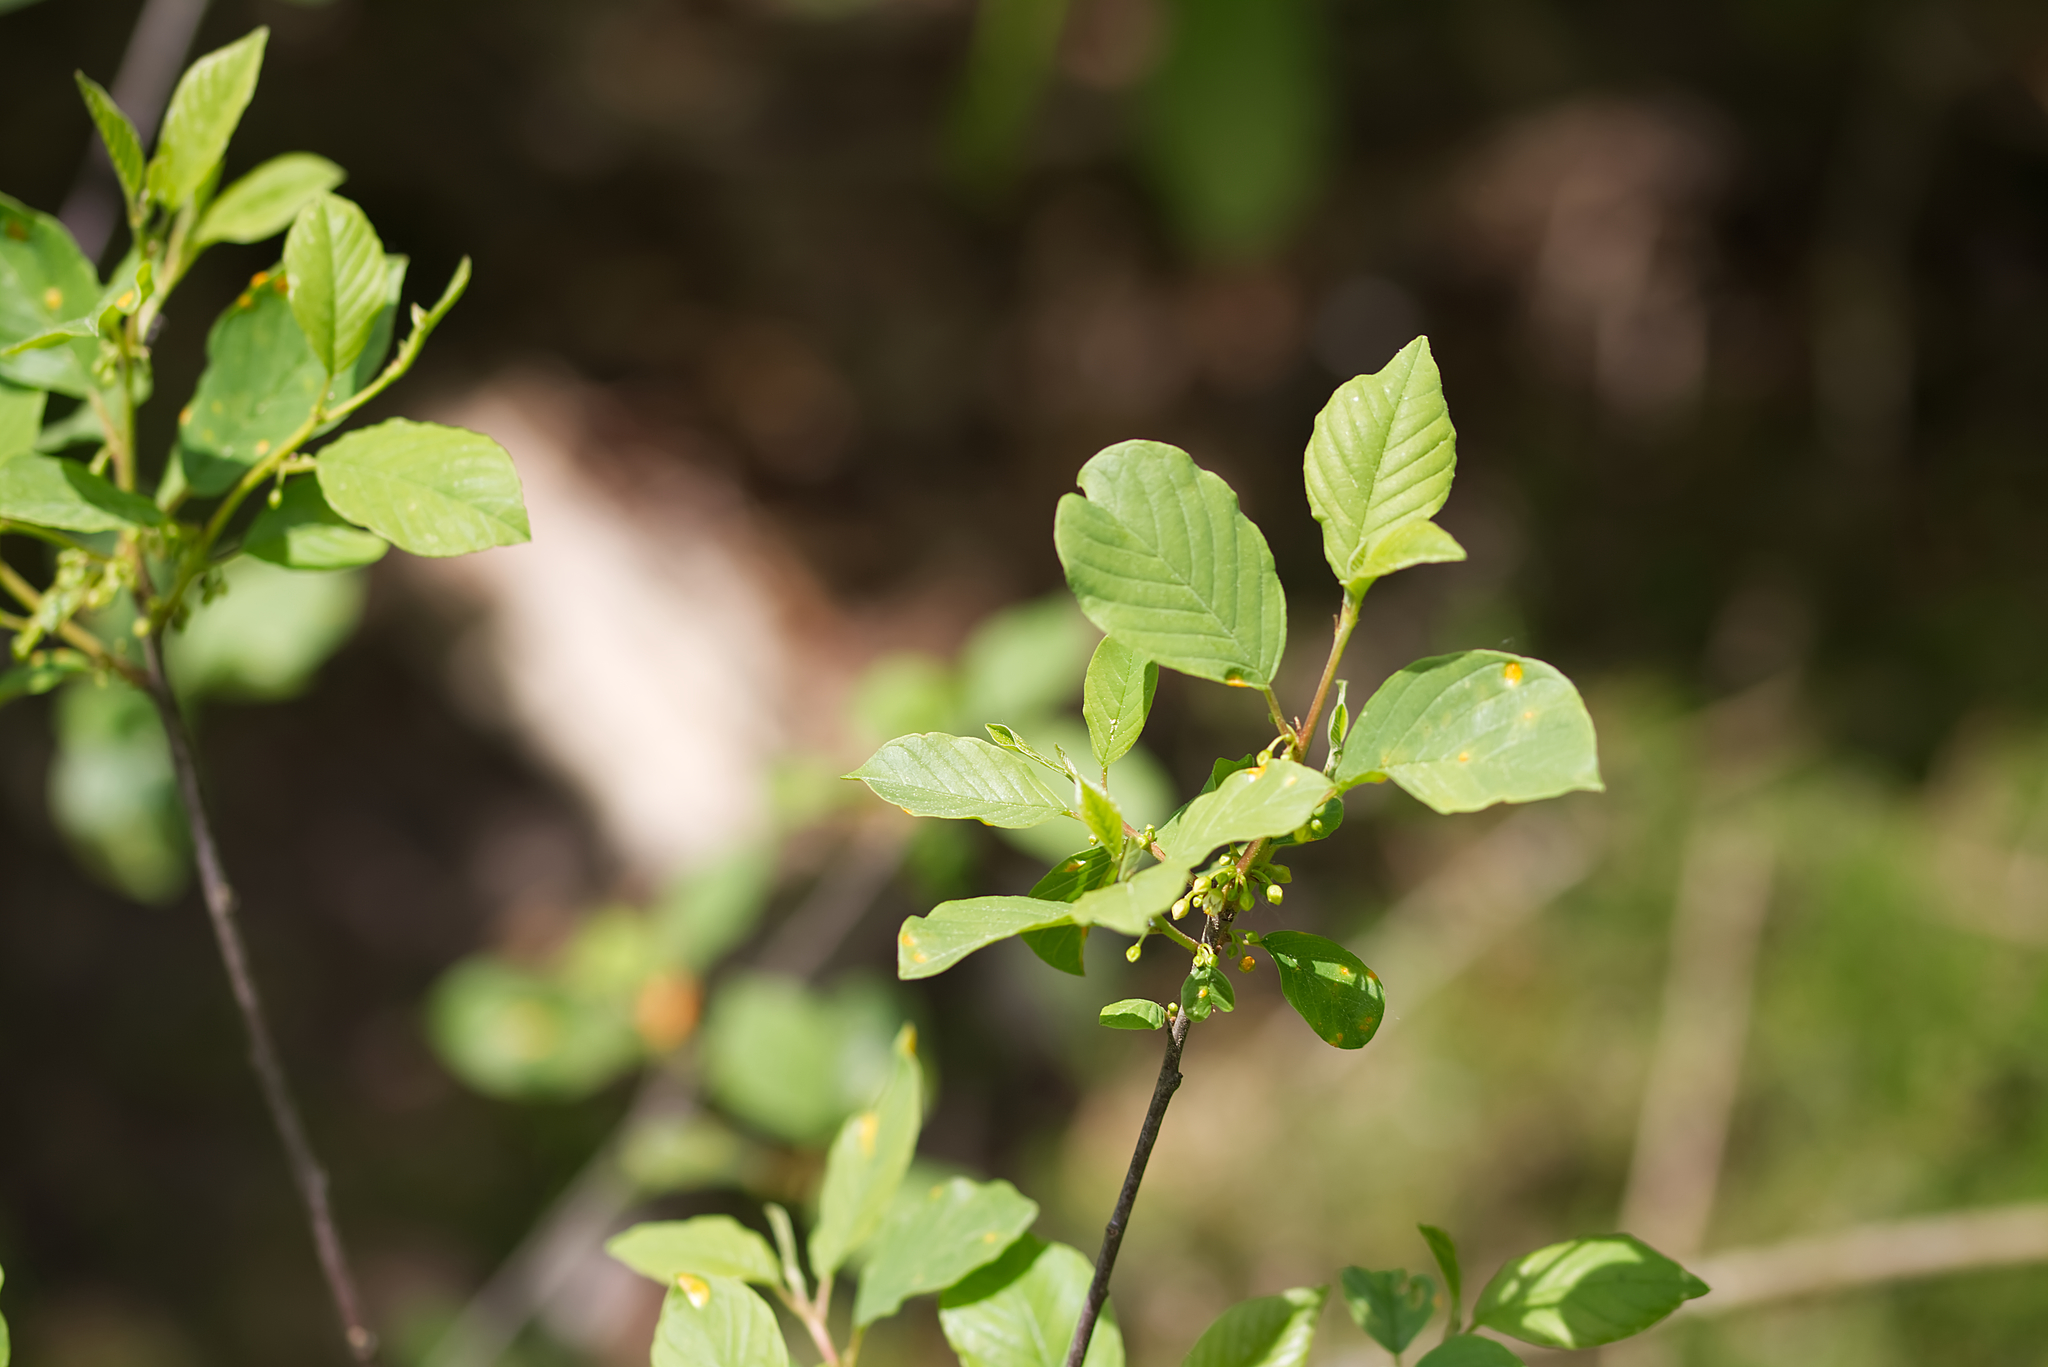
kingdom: Plantae
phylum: Tracheophyta
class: Magnoliopsida
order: Rosales
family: Rhamnaceae
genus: Frangula
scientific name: Frangula alnus
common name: Alder buckthorn
